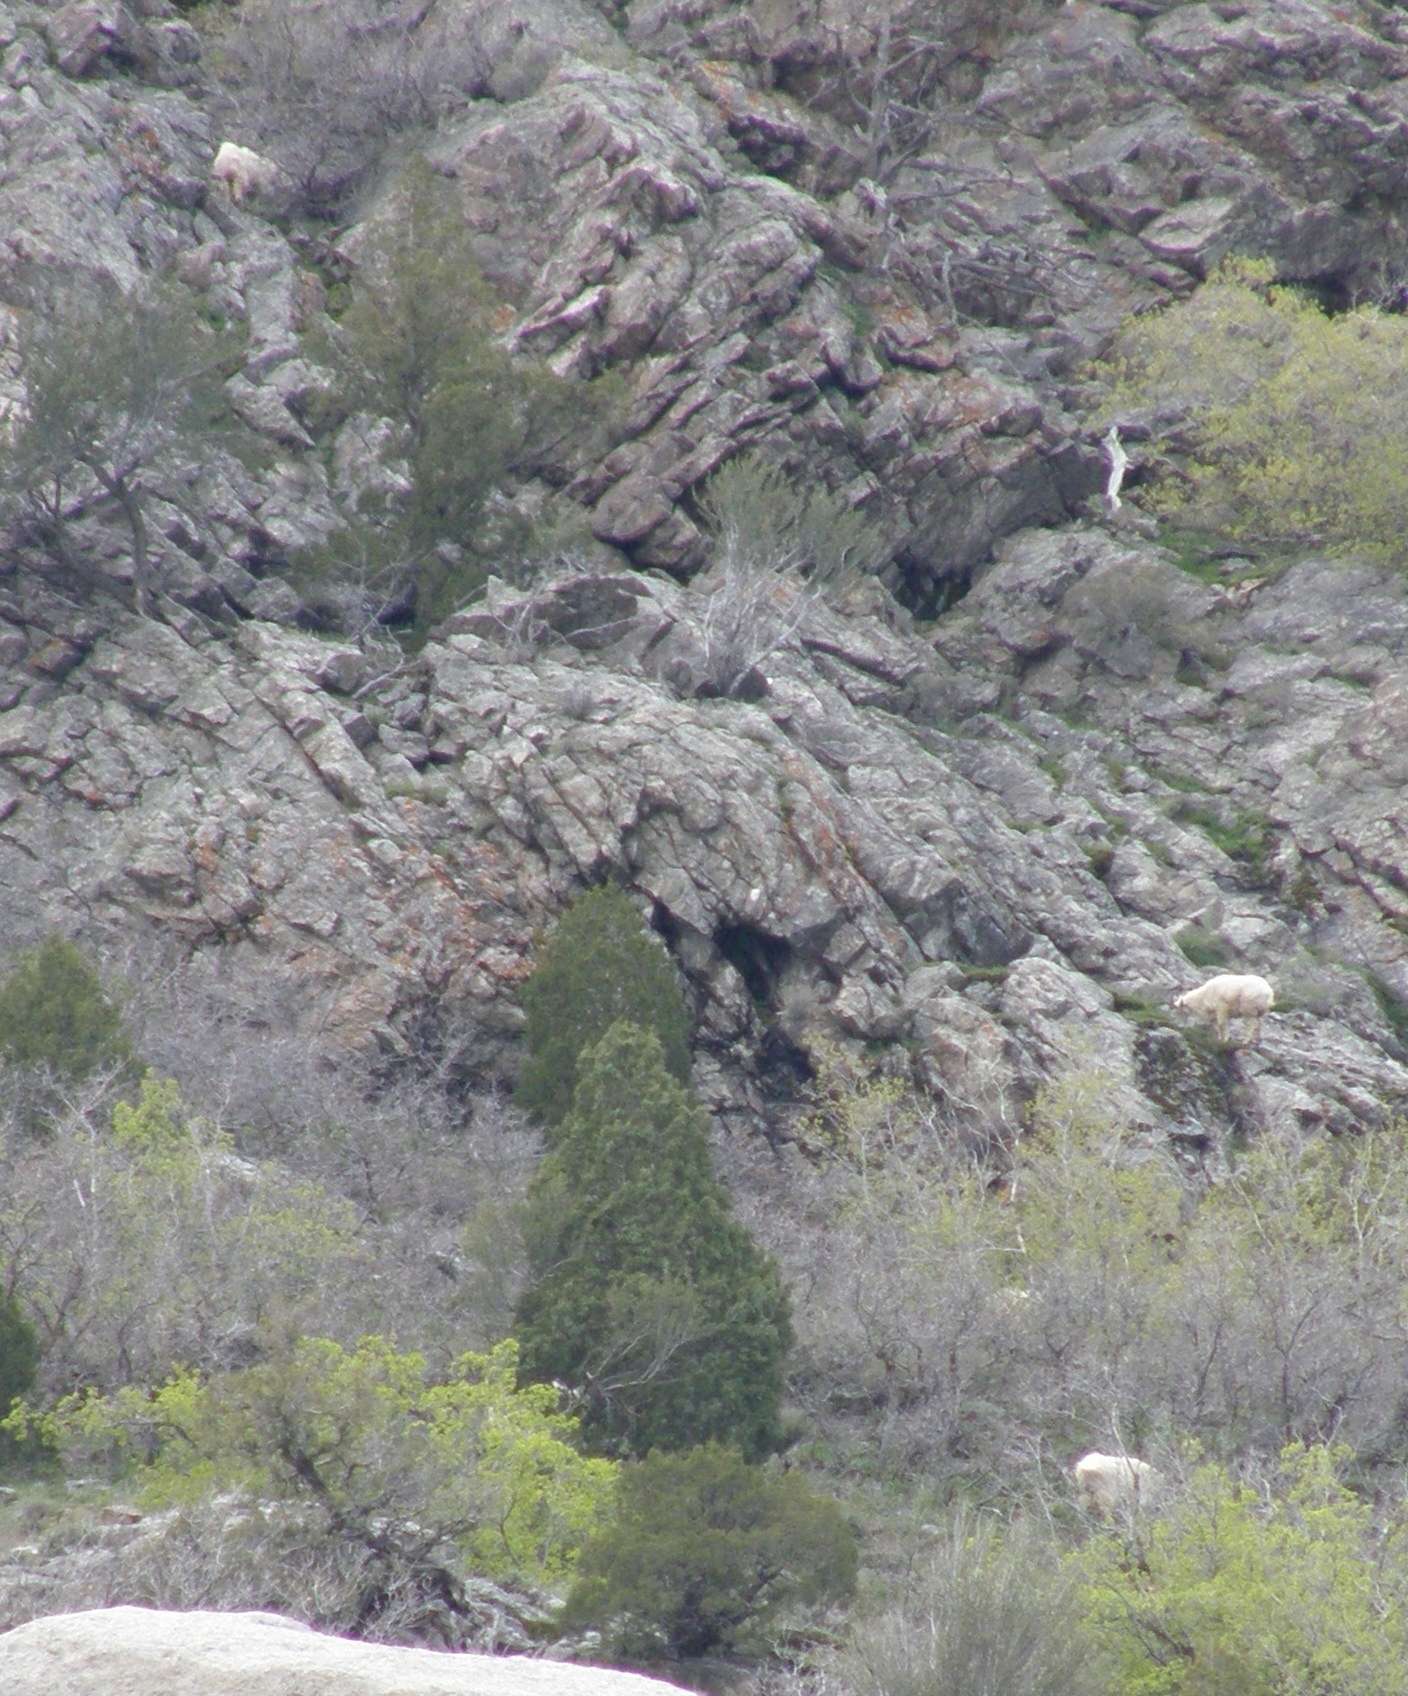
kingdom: Animalia
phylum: Chordata
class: Mammalia
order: Artiodactyla
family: Bovidae
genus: Oreamnos
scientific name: Oreamnos americanus
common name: Mountain goat
